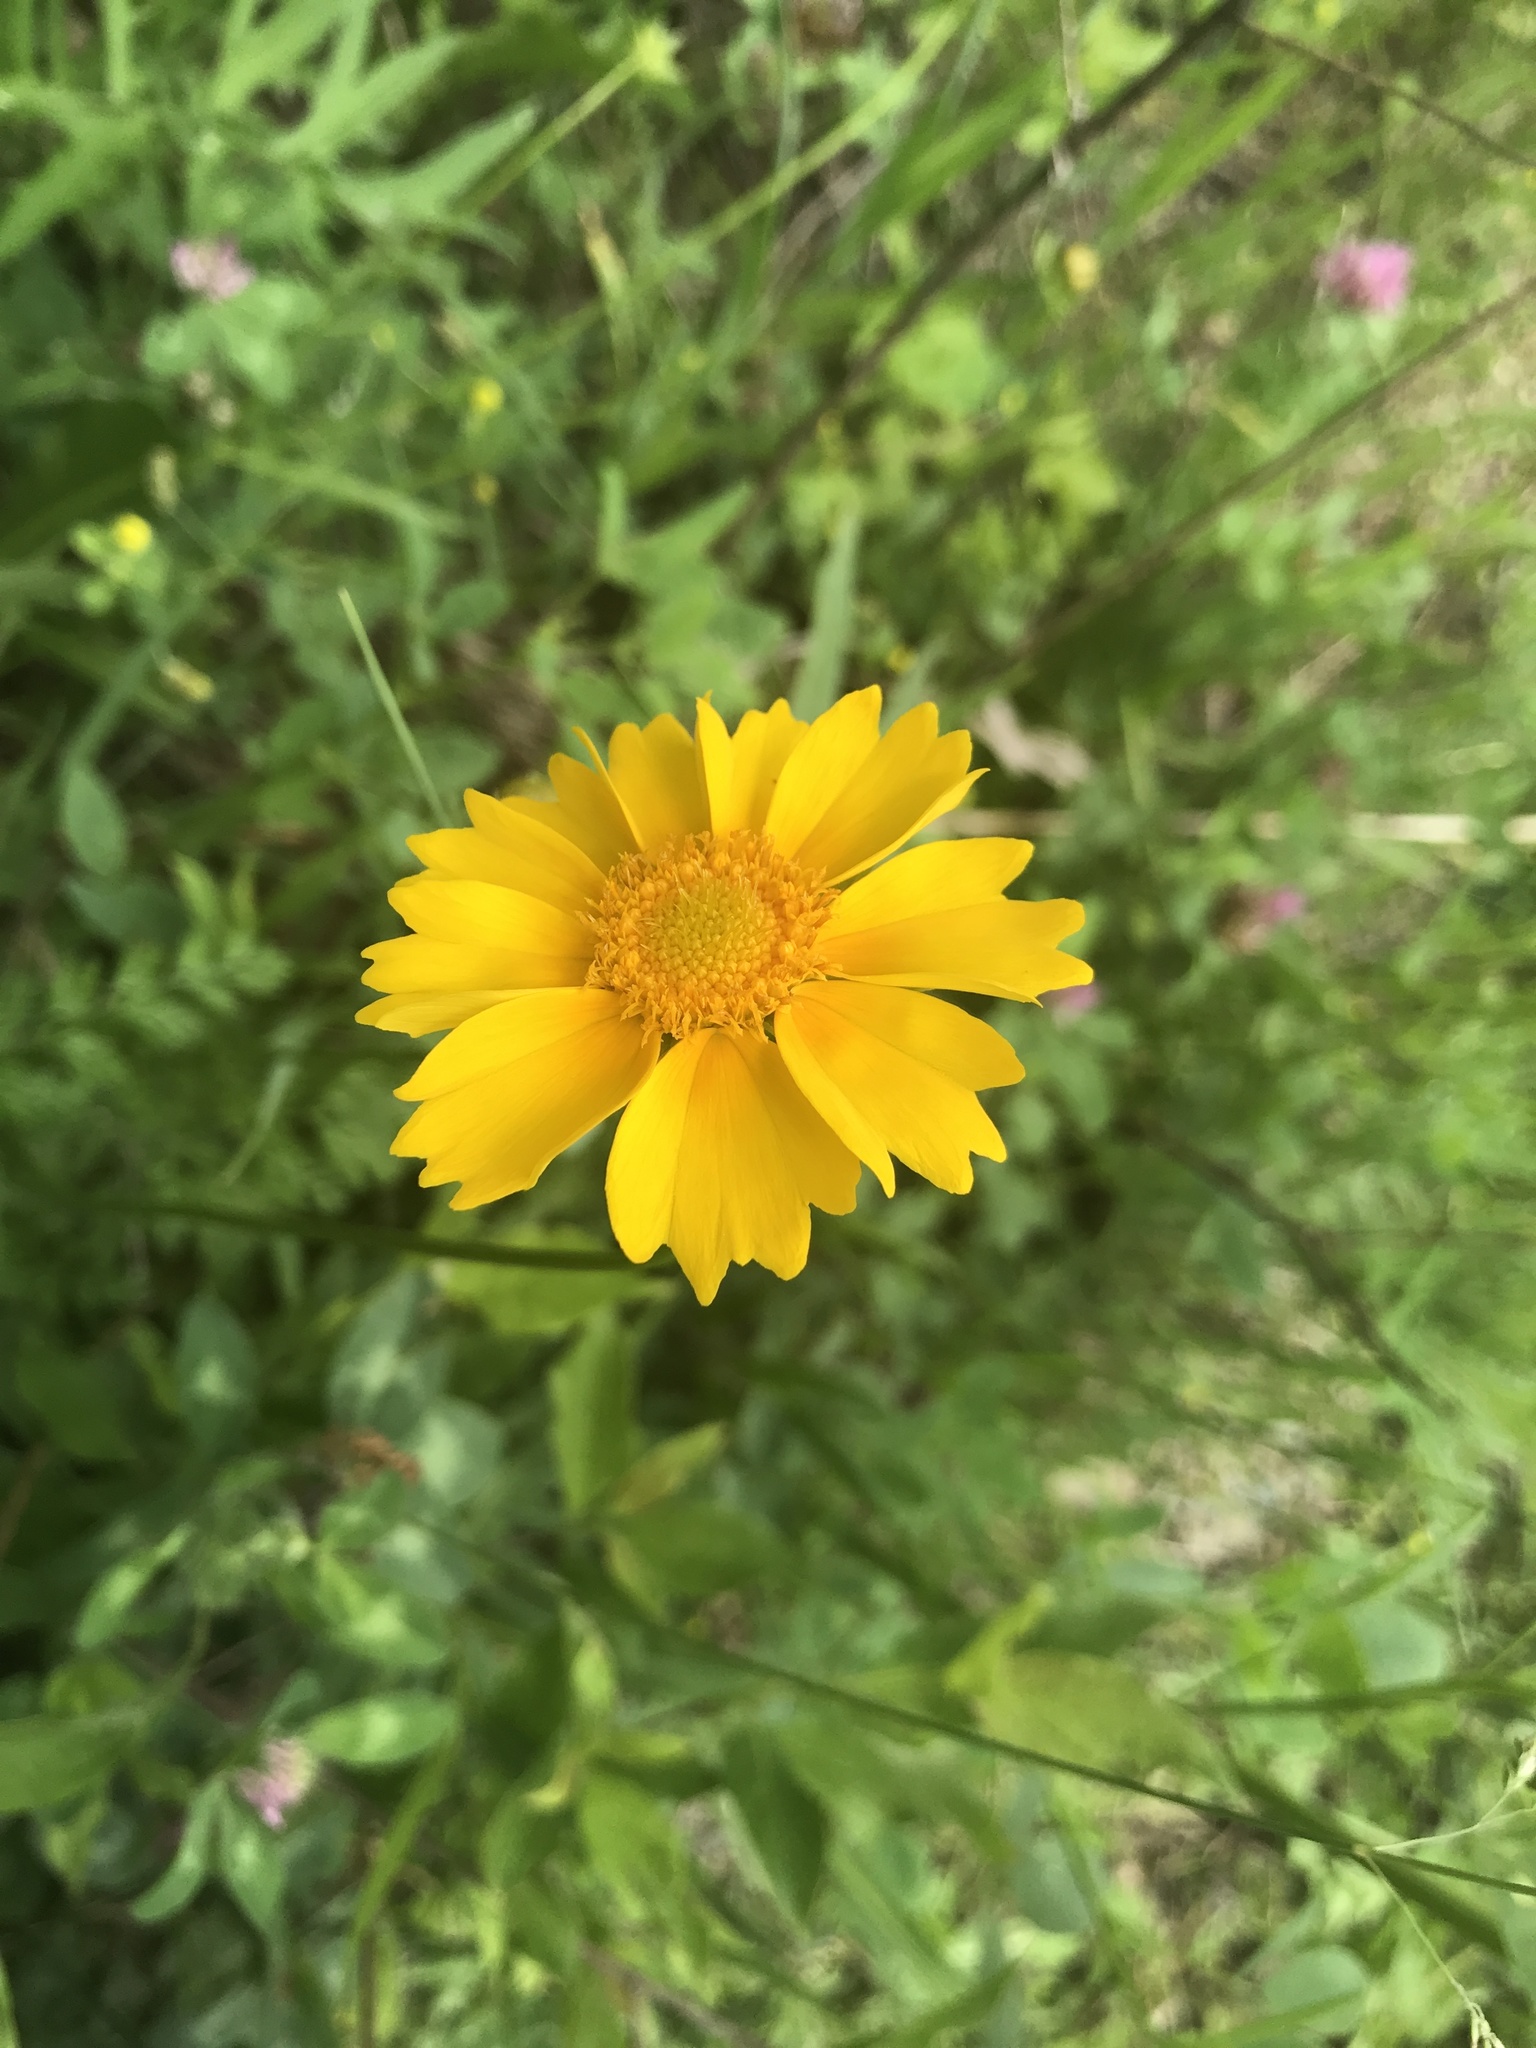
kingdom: Plantae
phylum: Tracheophyta
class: Magnoliopsida
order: Asterales
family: Asteraceae
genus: Coreopsis
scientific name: Coreopsis lanceolata
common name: Garden coreopsis
